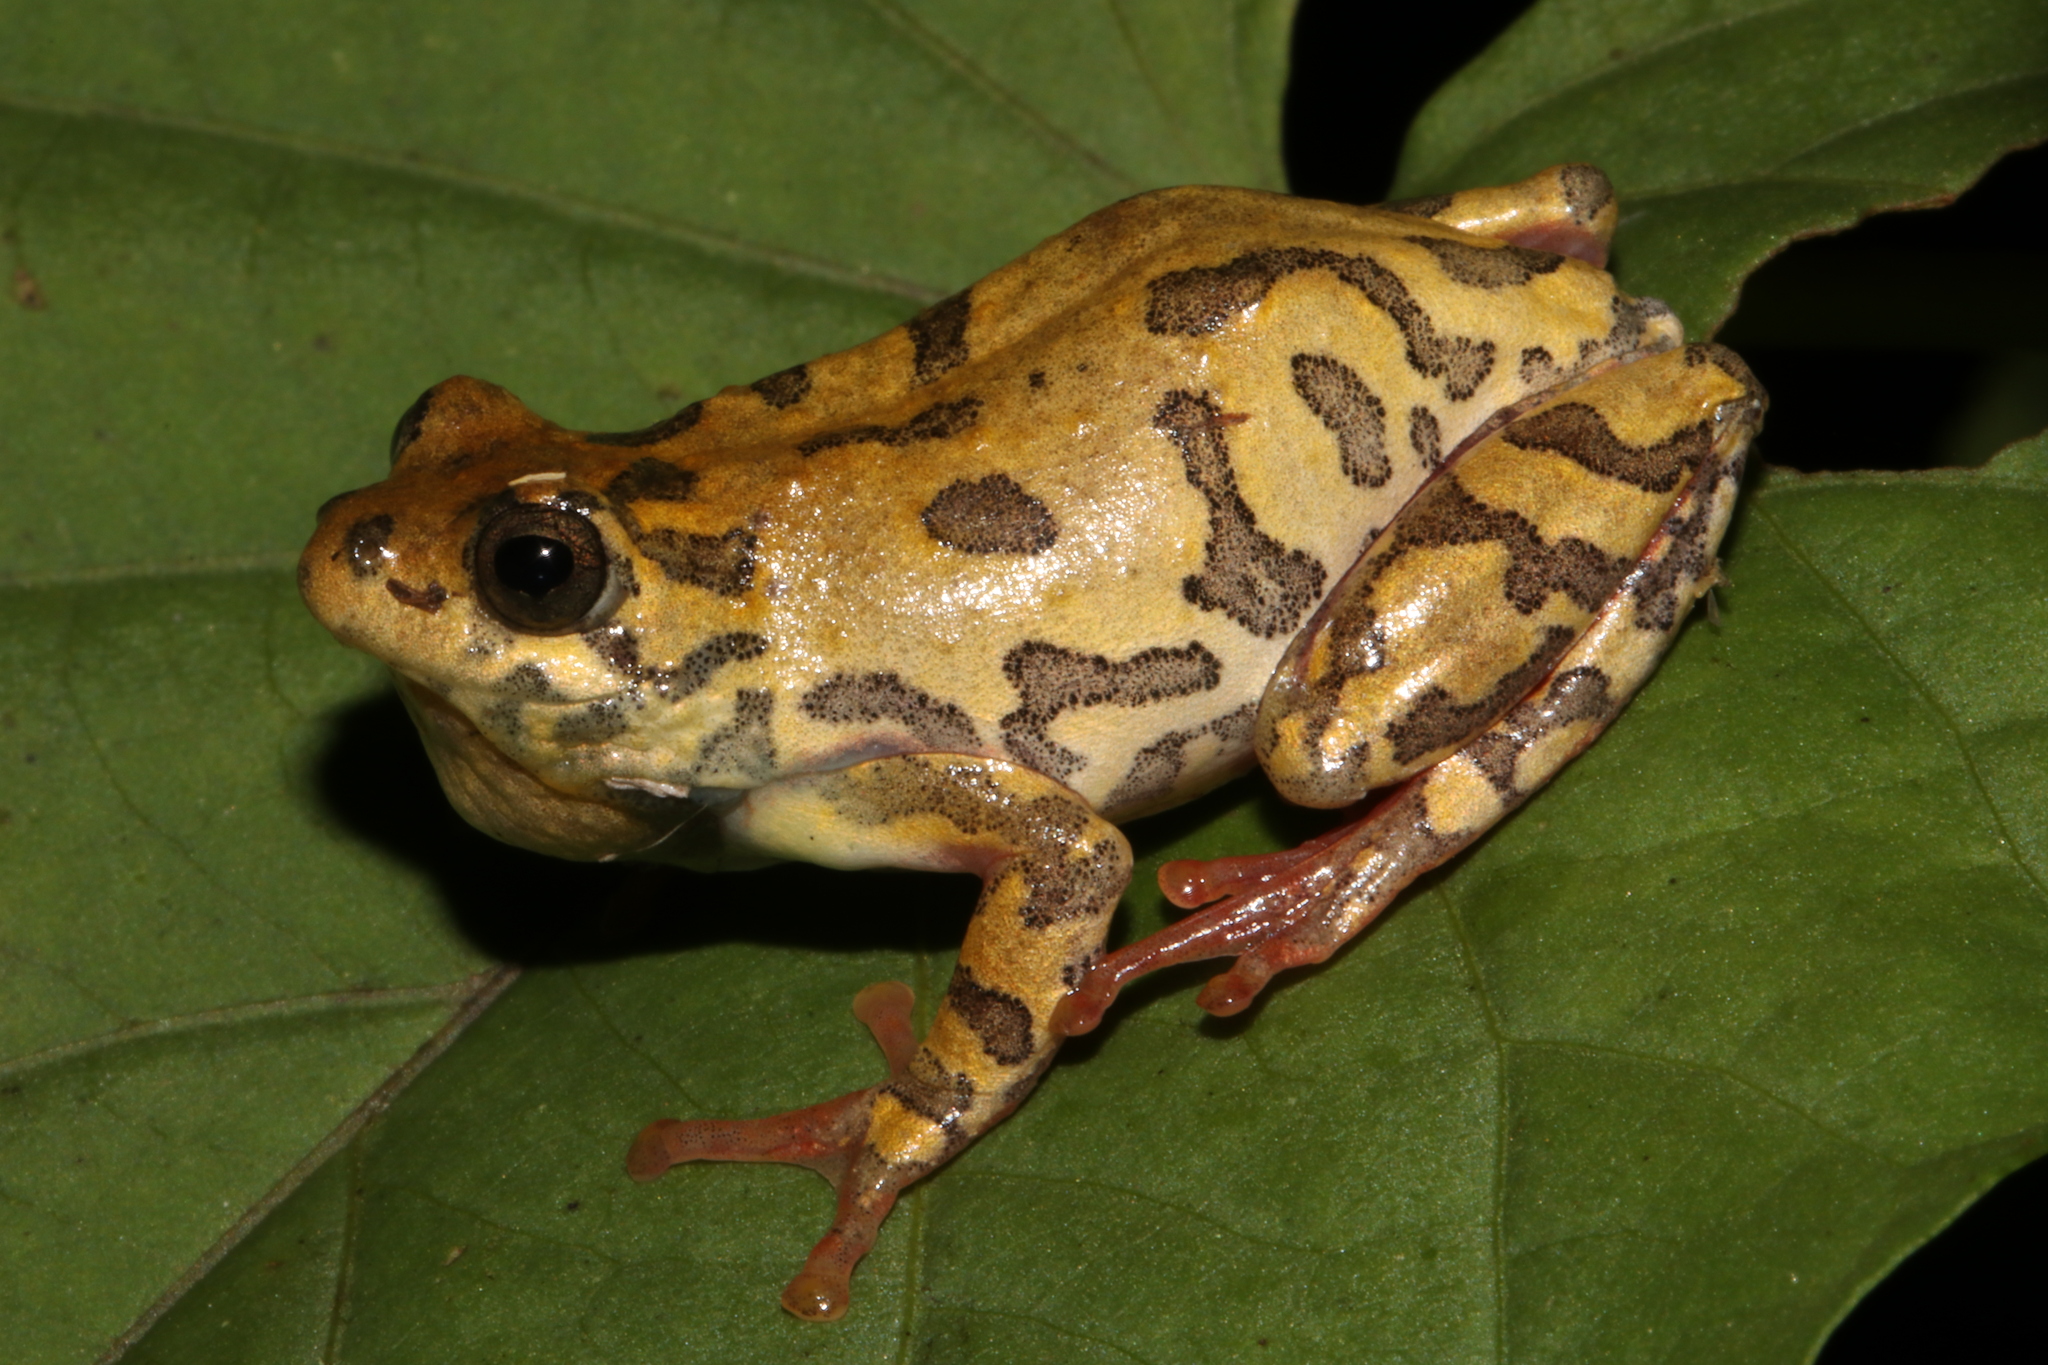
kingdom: Animalia
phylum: Chordata
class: Amphibia
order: Anura
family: Hyperoliidae
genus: Hyperolius
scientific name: Hyperolius glandicolor
